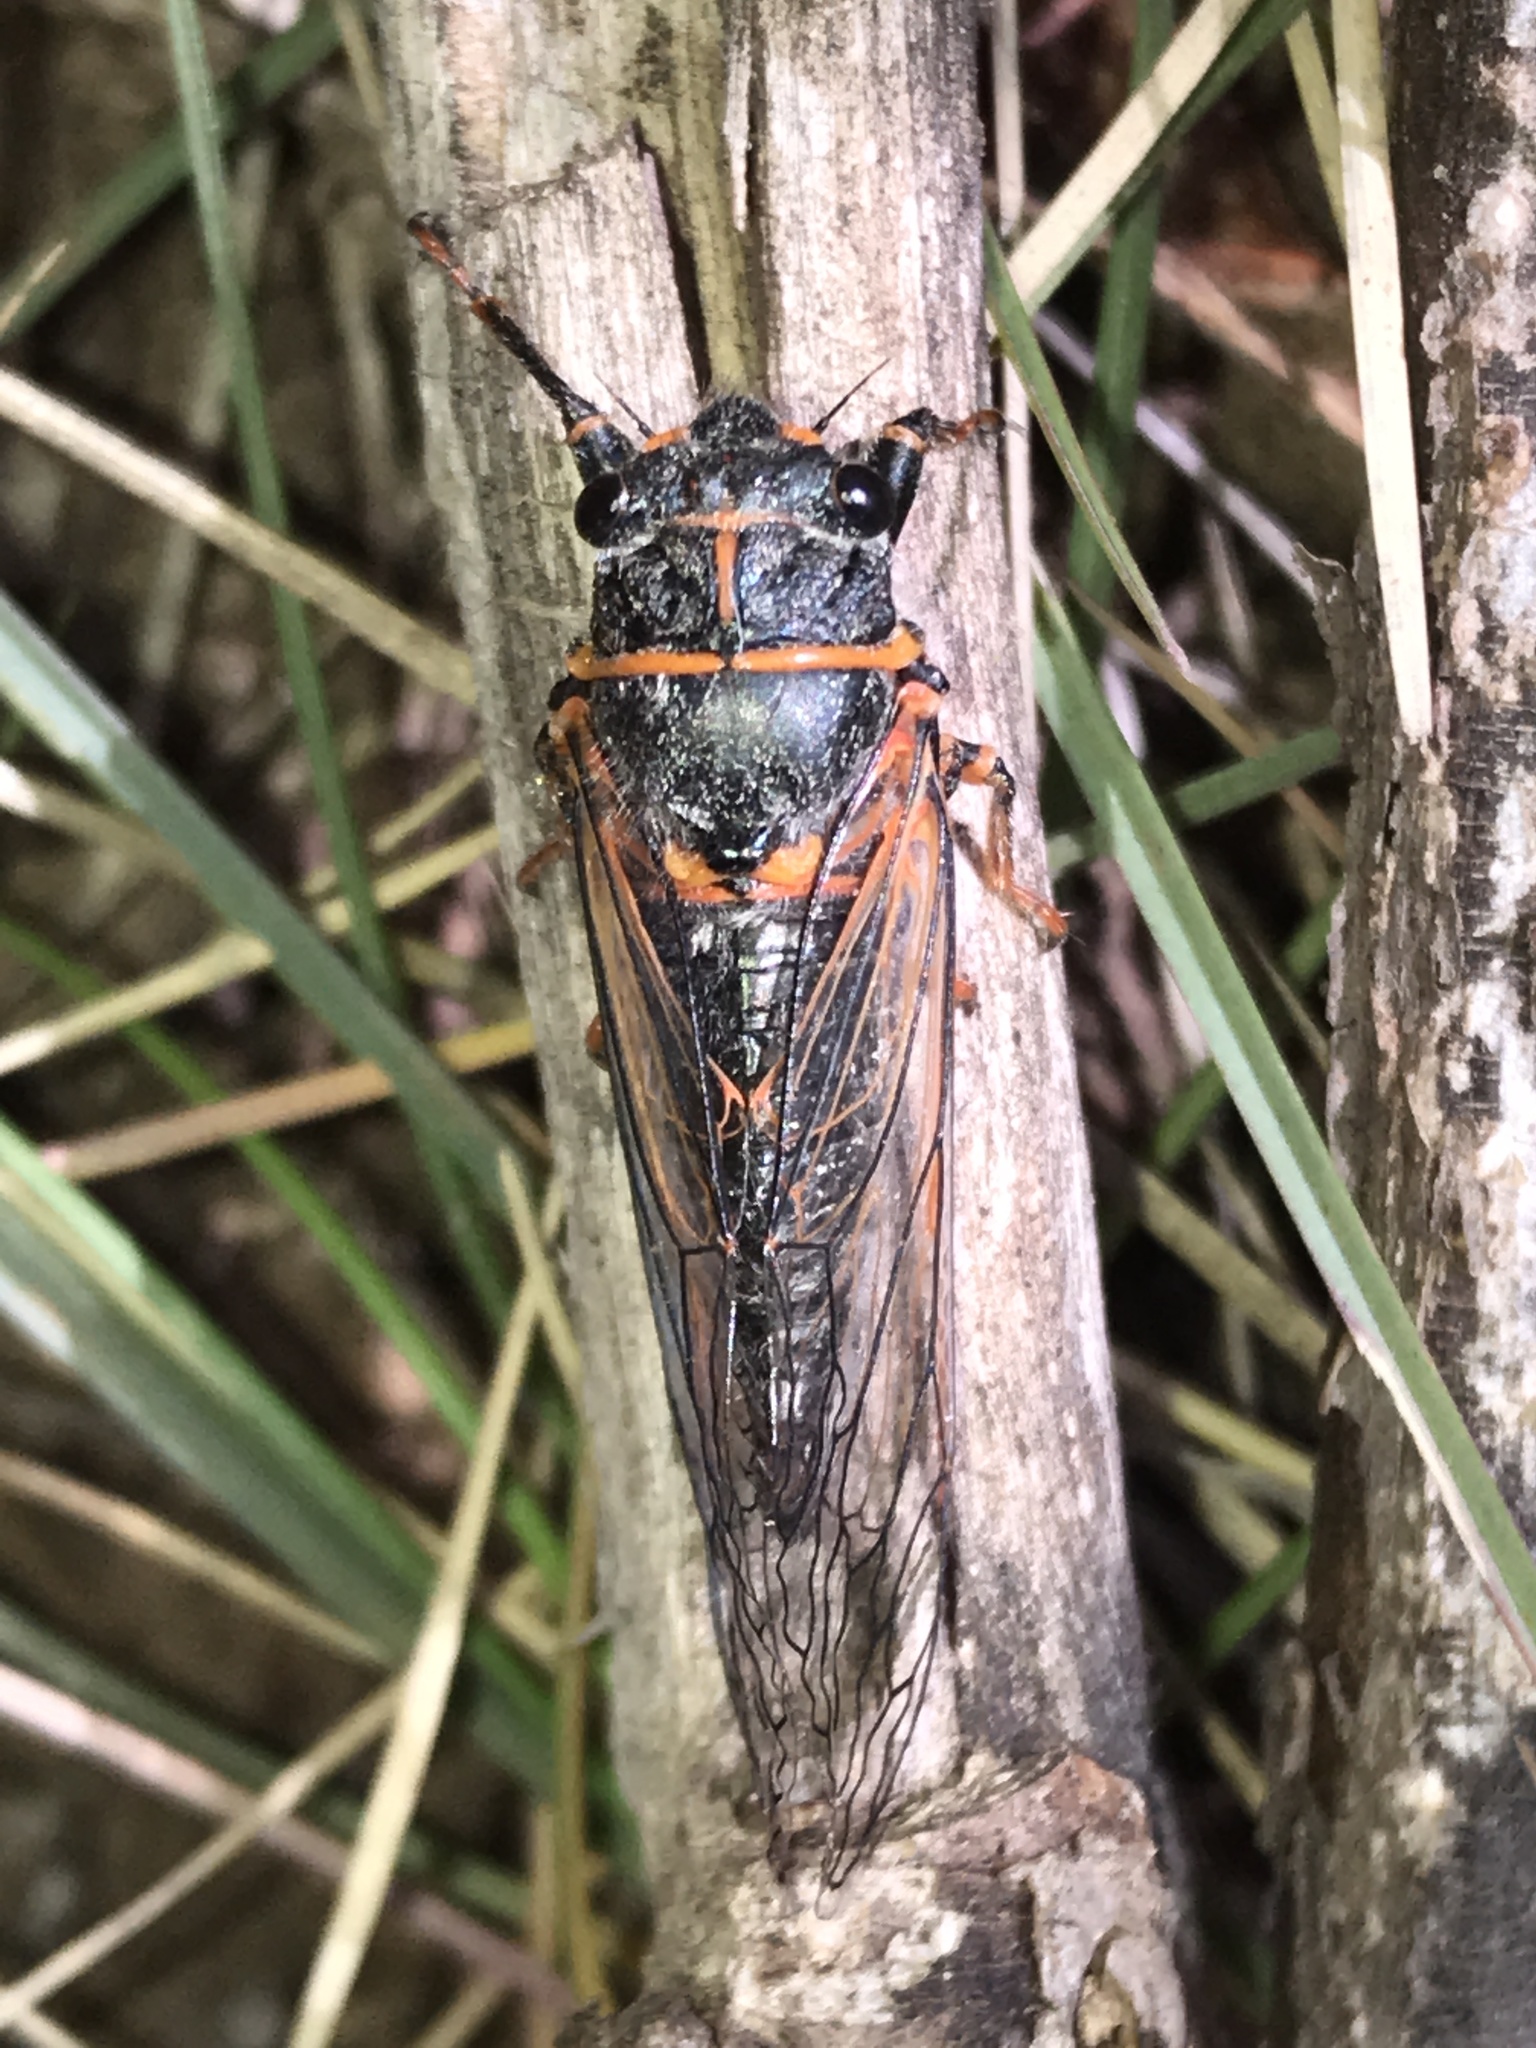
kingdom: Animalia
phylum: Arthropoda
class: Insecta
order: Hemiptera
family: Cicadidae
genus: Platypedia
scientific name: Platypedia putnami
